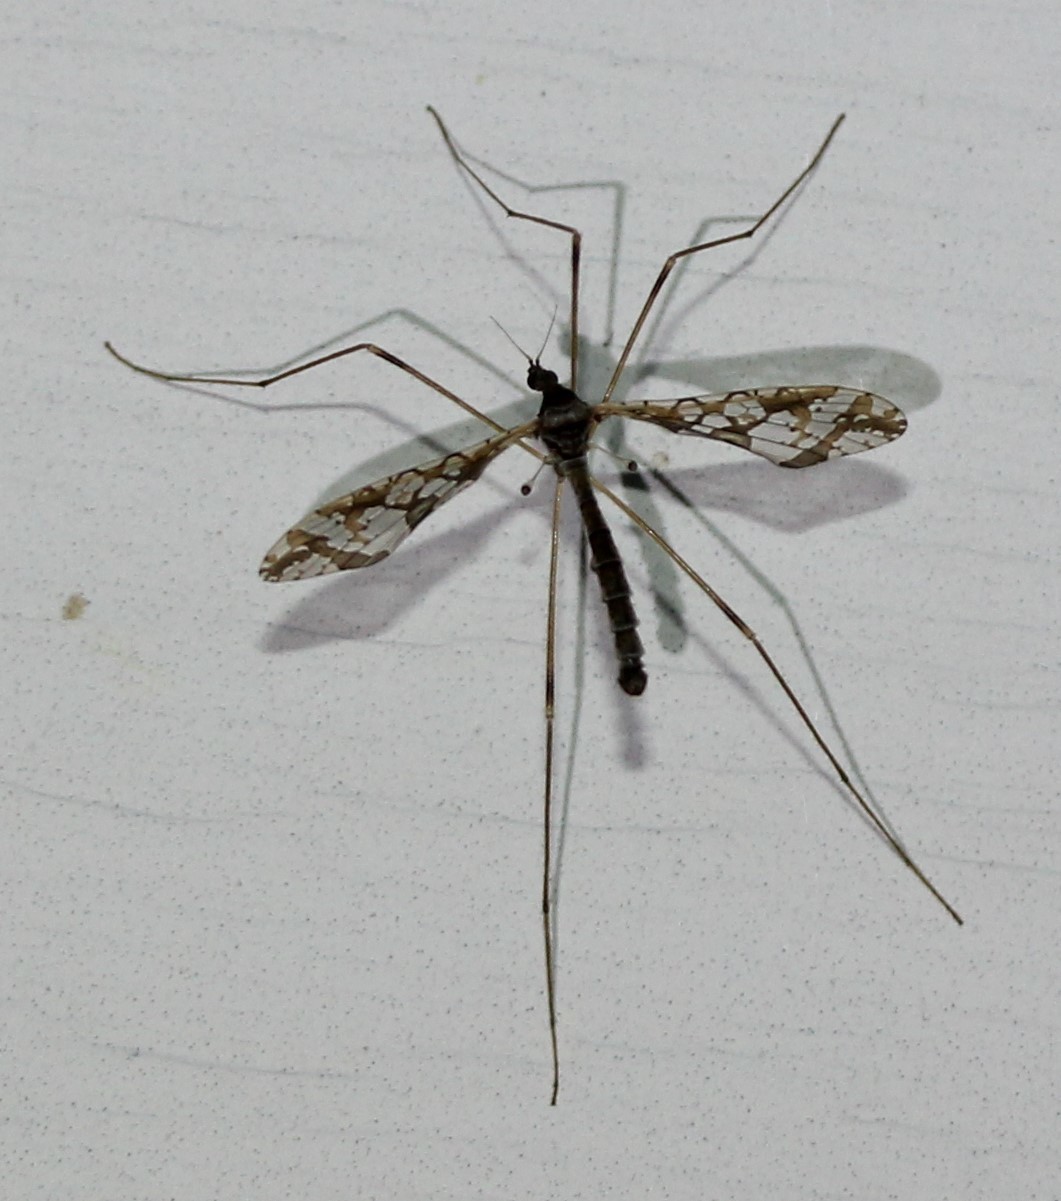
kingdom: Animalia
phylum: Arthropoda
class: Insecta
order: Diptera
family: Limoniidae
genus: Epiphragma
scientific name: Epiphragma solatrix
